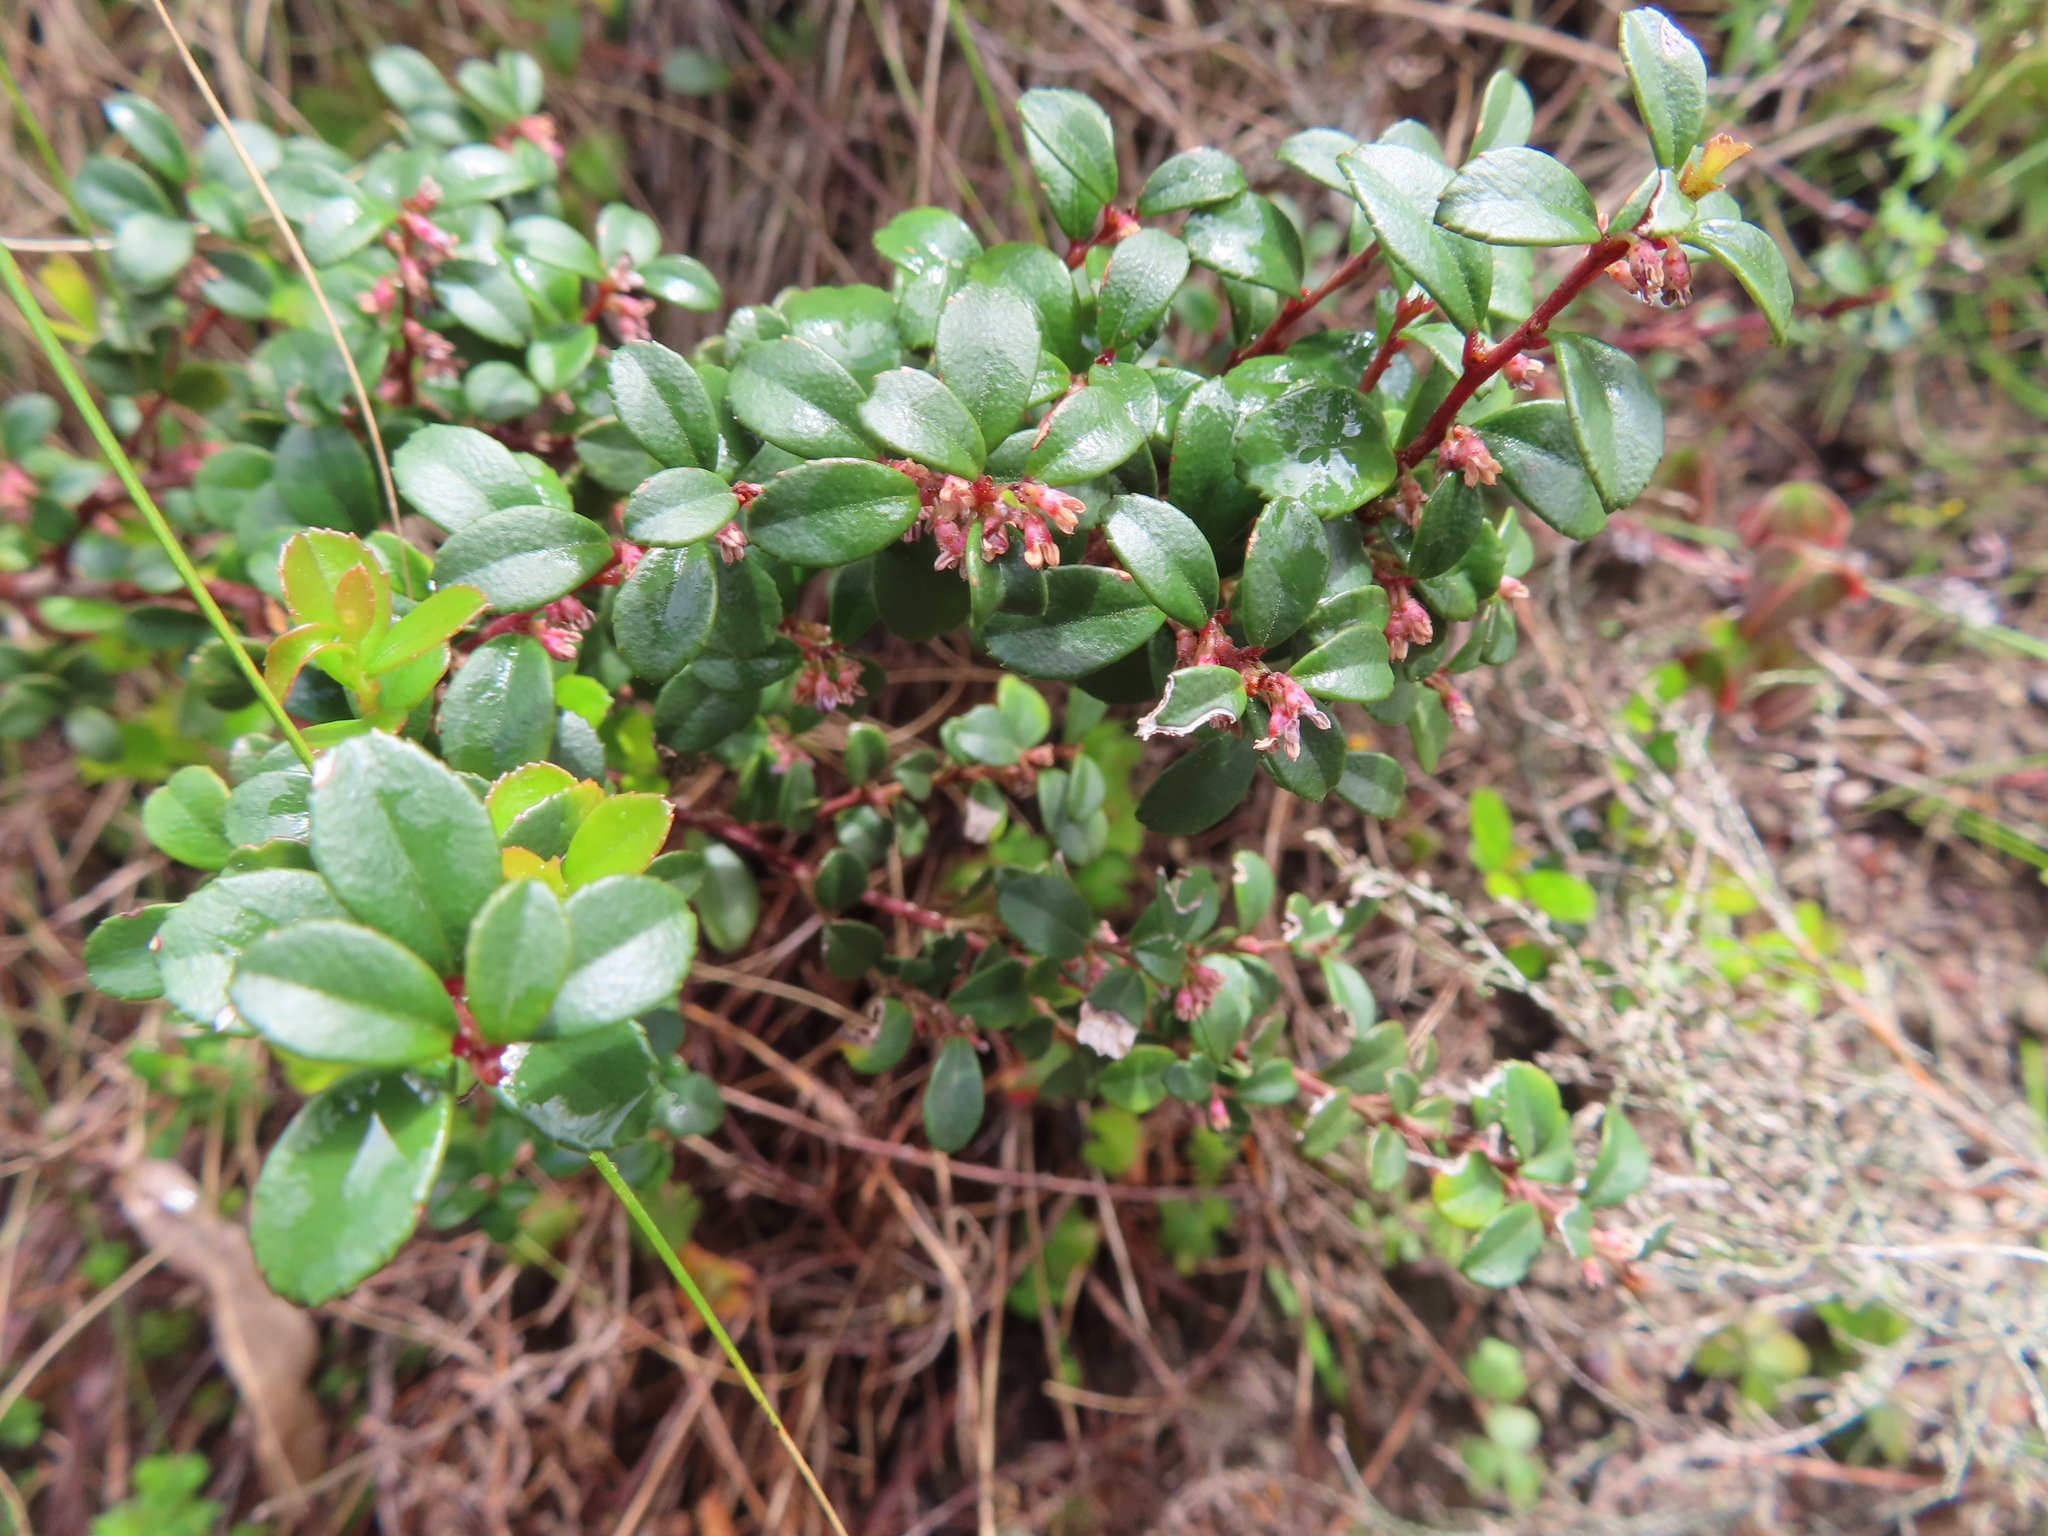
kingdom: Plantae
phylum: Tracheophyta
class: Magnoliopsida
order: Ericales
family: Primulaceae
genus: Myrsine
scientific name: Myrsine africana
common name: African-boxwood
